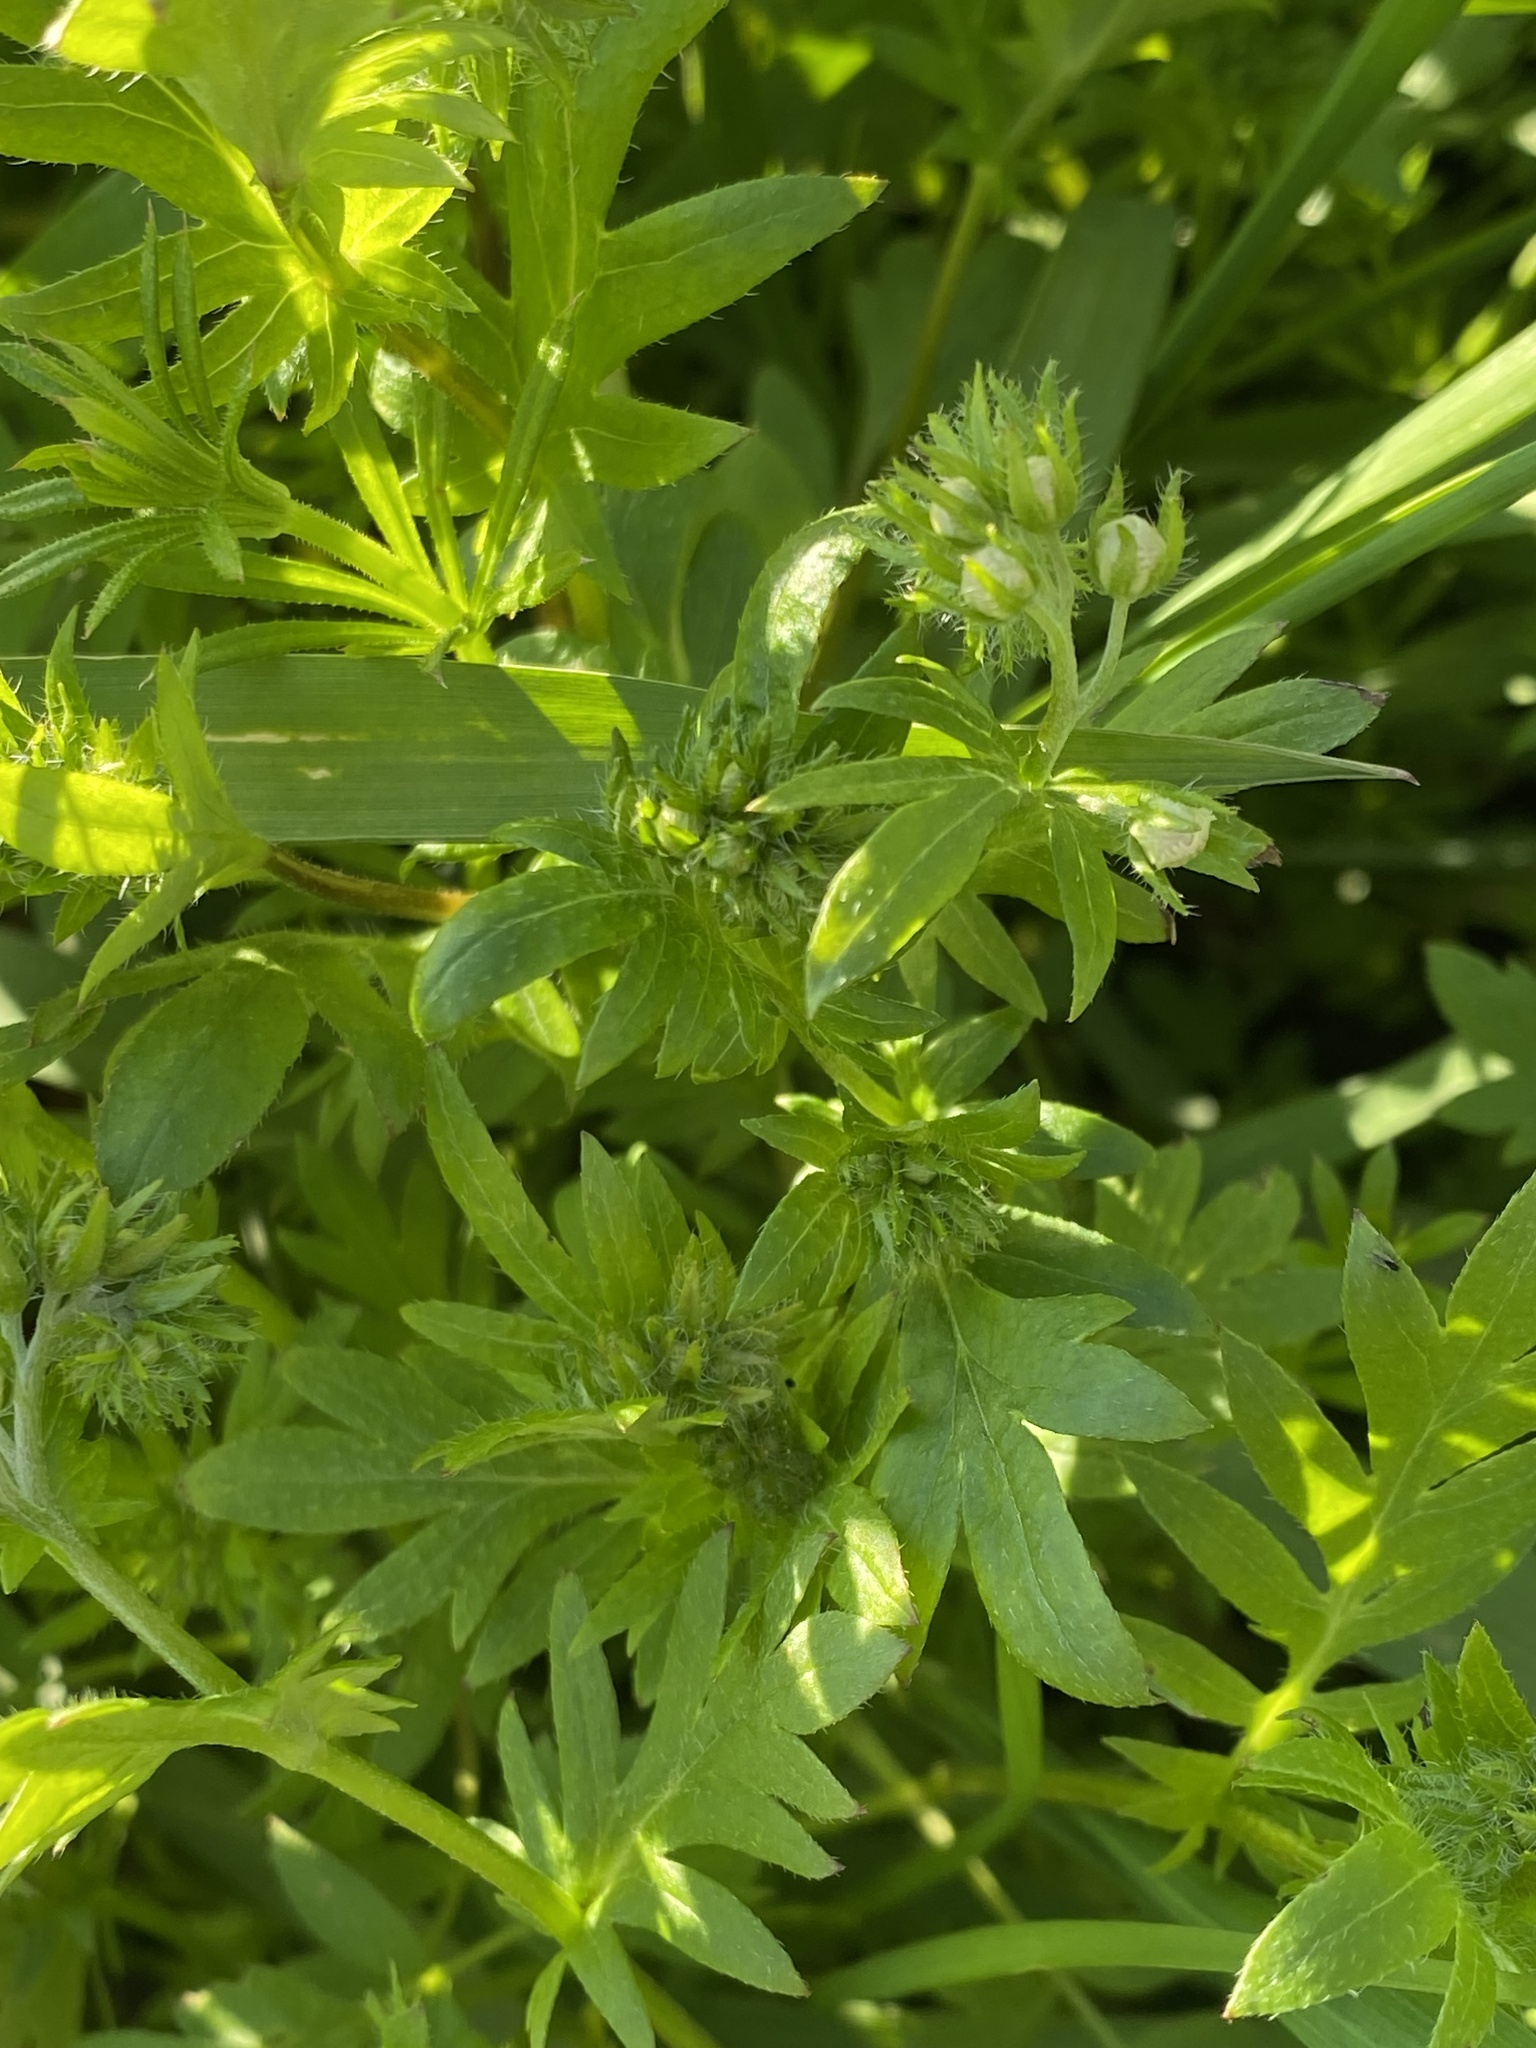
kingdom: Plantae
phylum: Tracheophyta
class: Magnoliopsida
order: Boraginales
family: Hydrophyllaceae
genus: Phacelia
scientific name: Phacelia purshii
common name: Miami-mist
